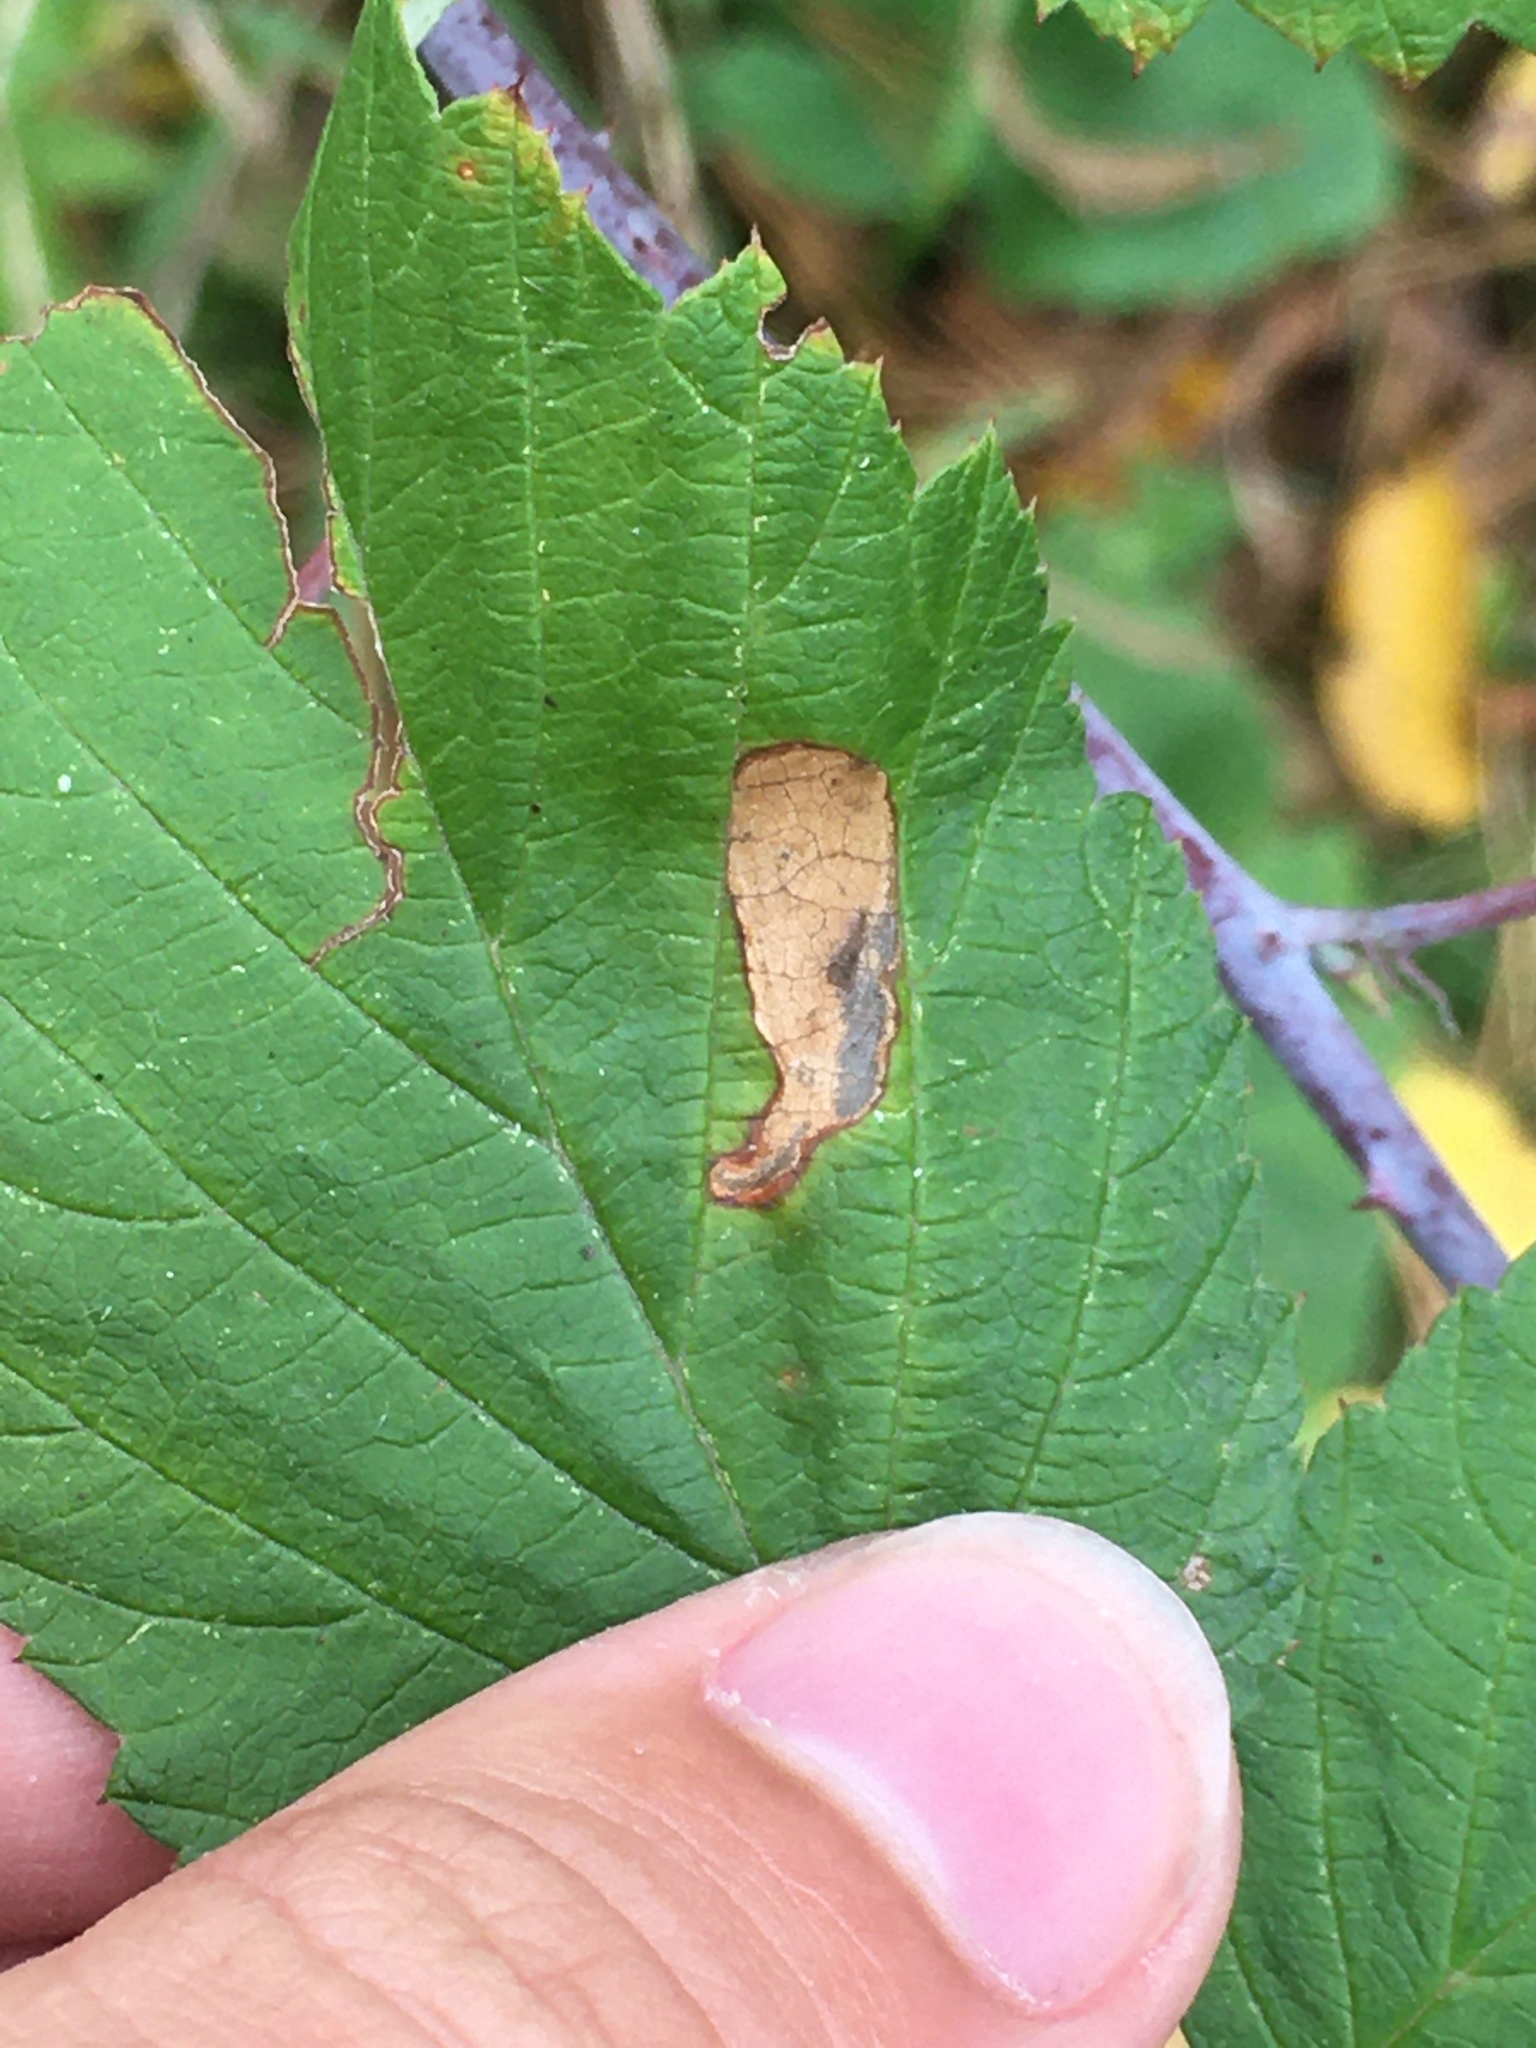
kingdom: Animalia
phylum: Arthropoda
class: Insecta
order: Hymenoptera
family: Tenthredinidae
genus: Metallus
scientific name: Metallus capitalis
